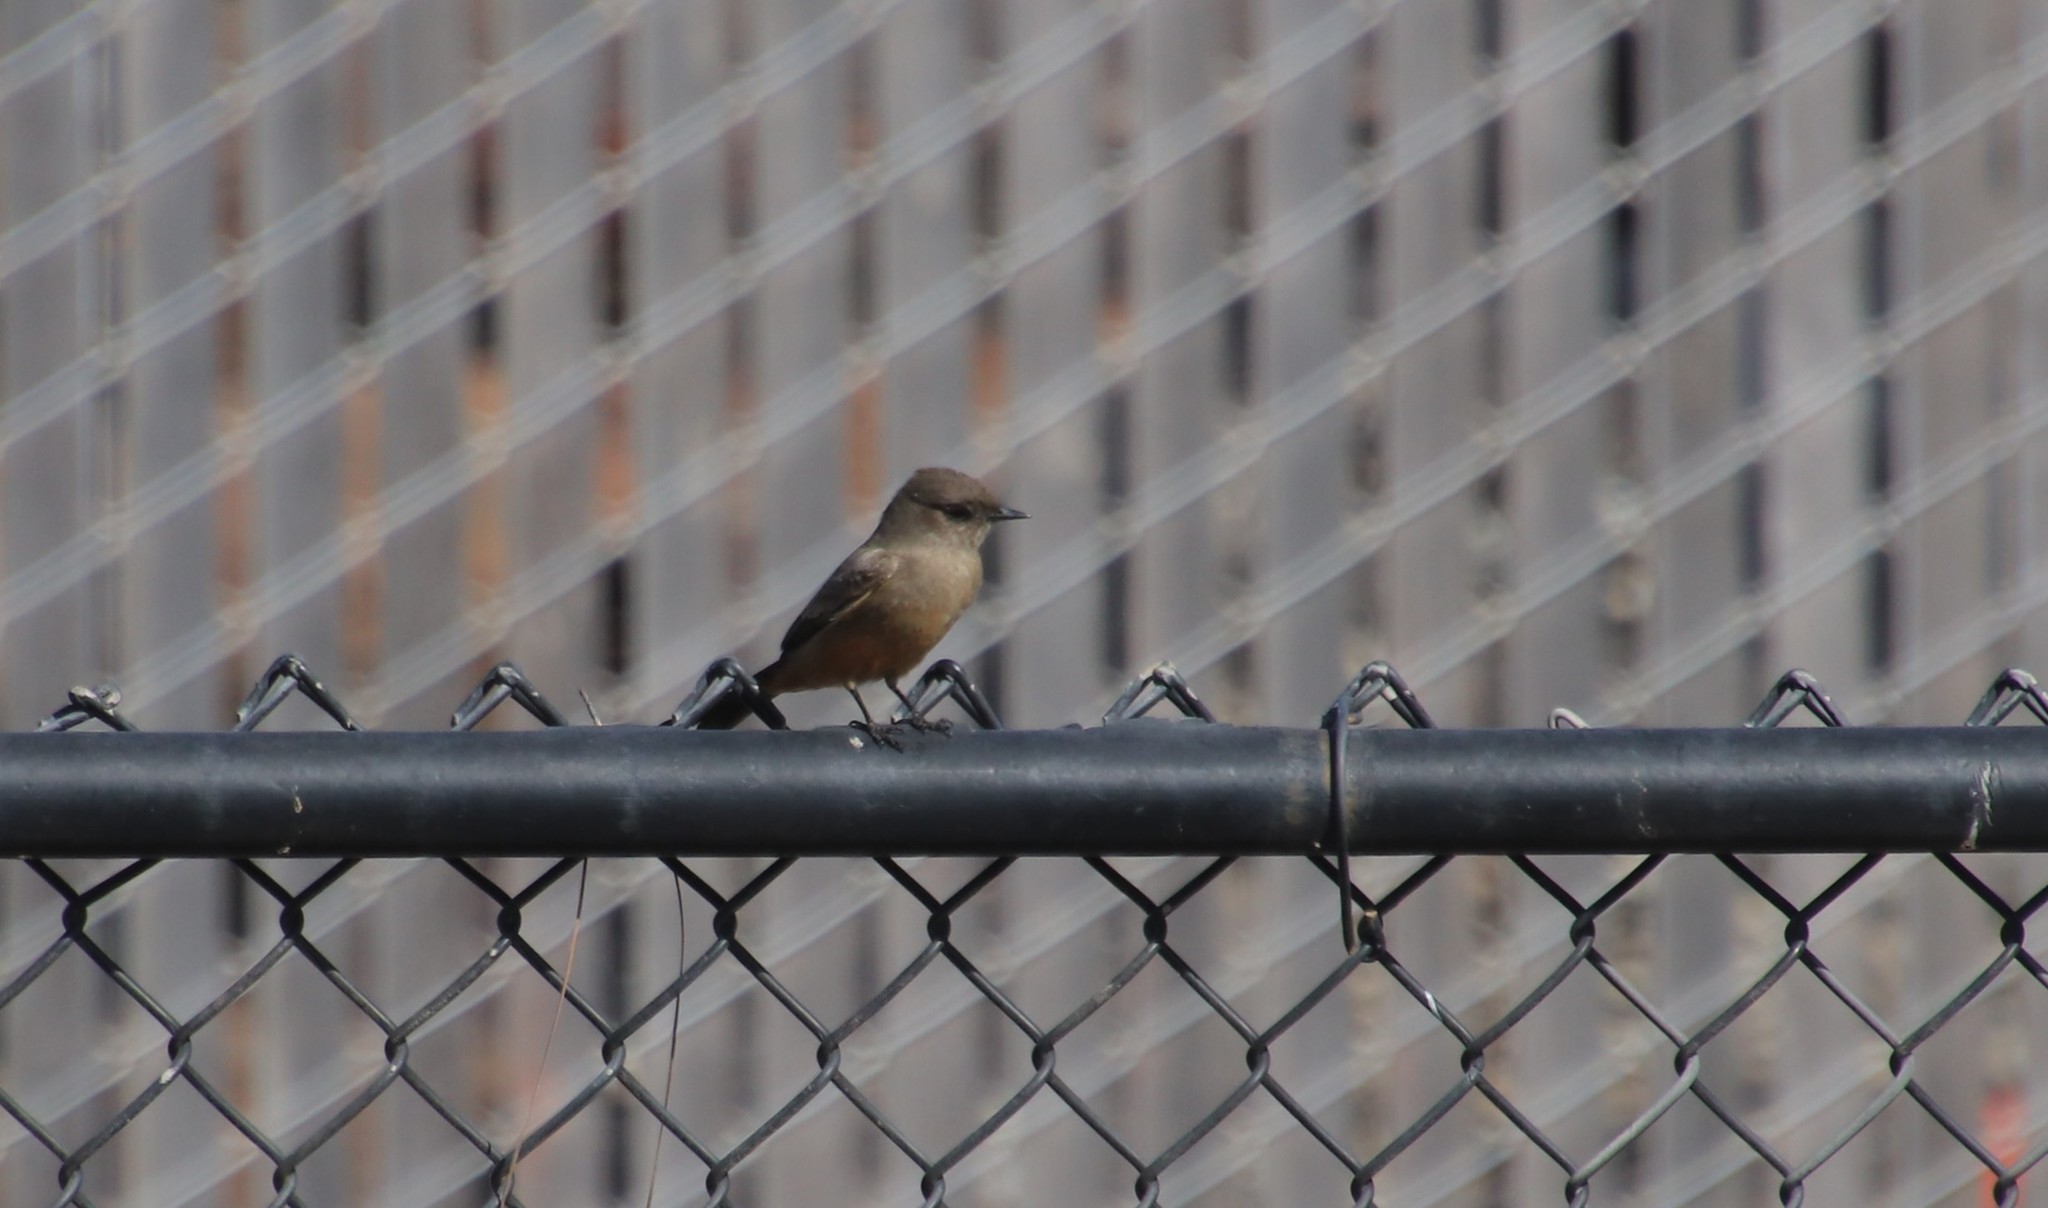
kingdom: Animalia
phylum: Chordata
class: Aves
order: Passeriformes
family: Tyrannidae
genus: Sayornis
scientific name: Sayornis saya
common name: Say's phoebe
